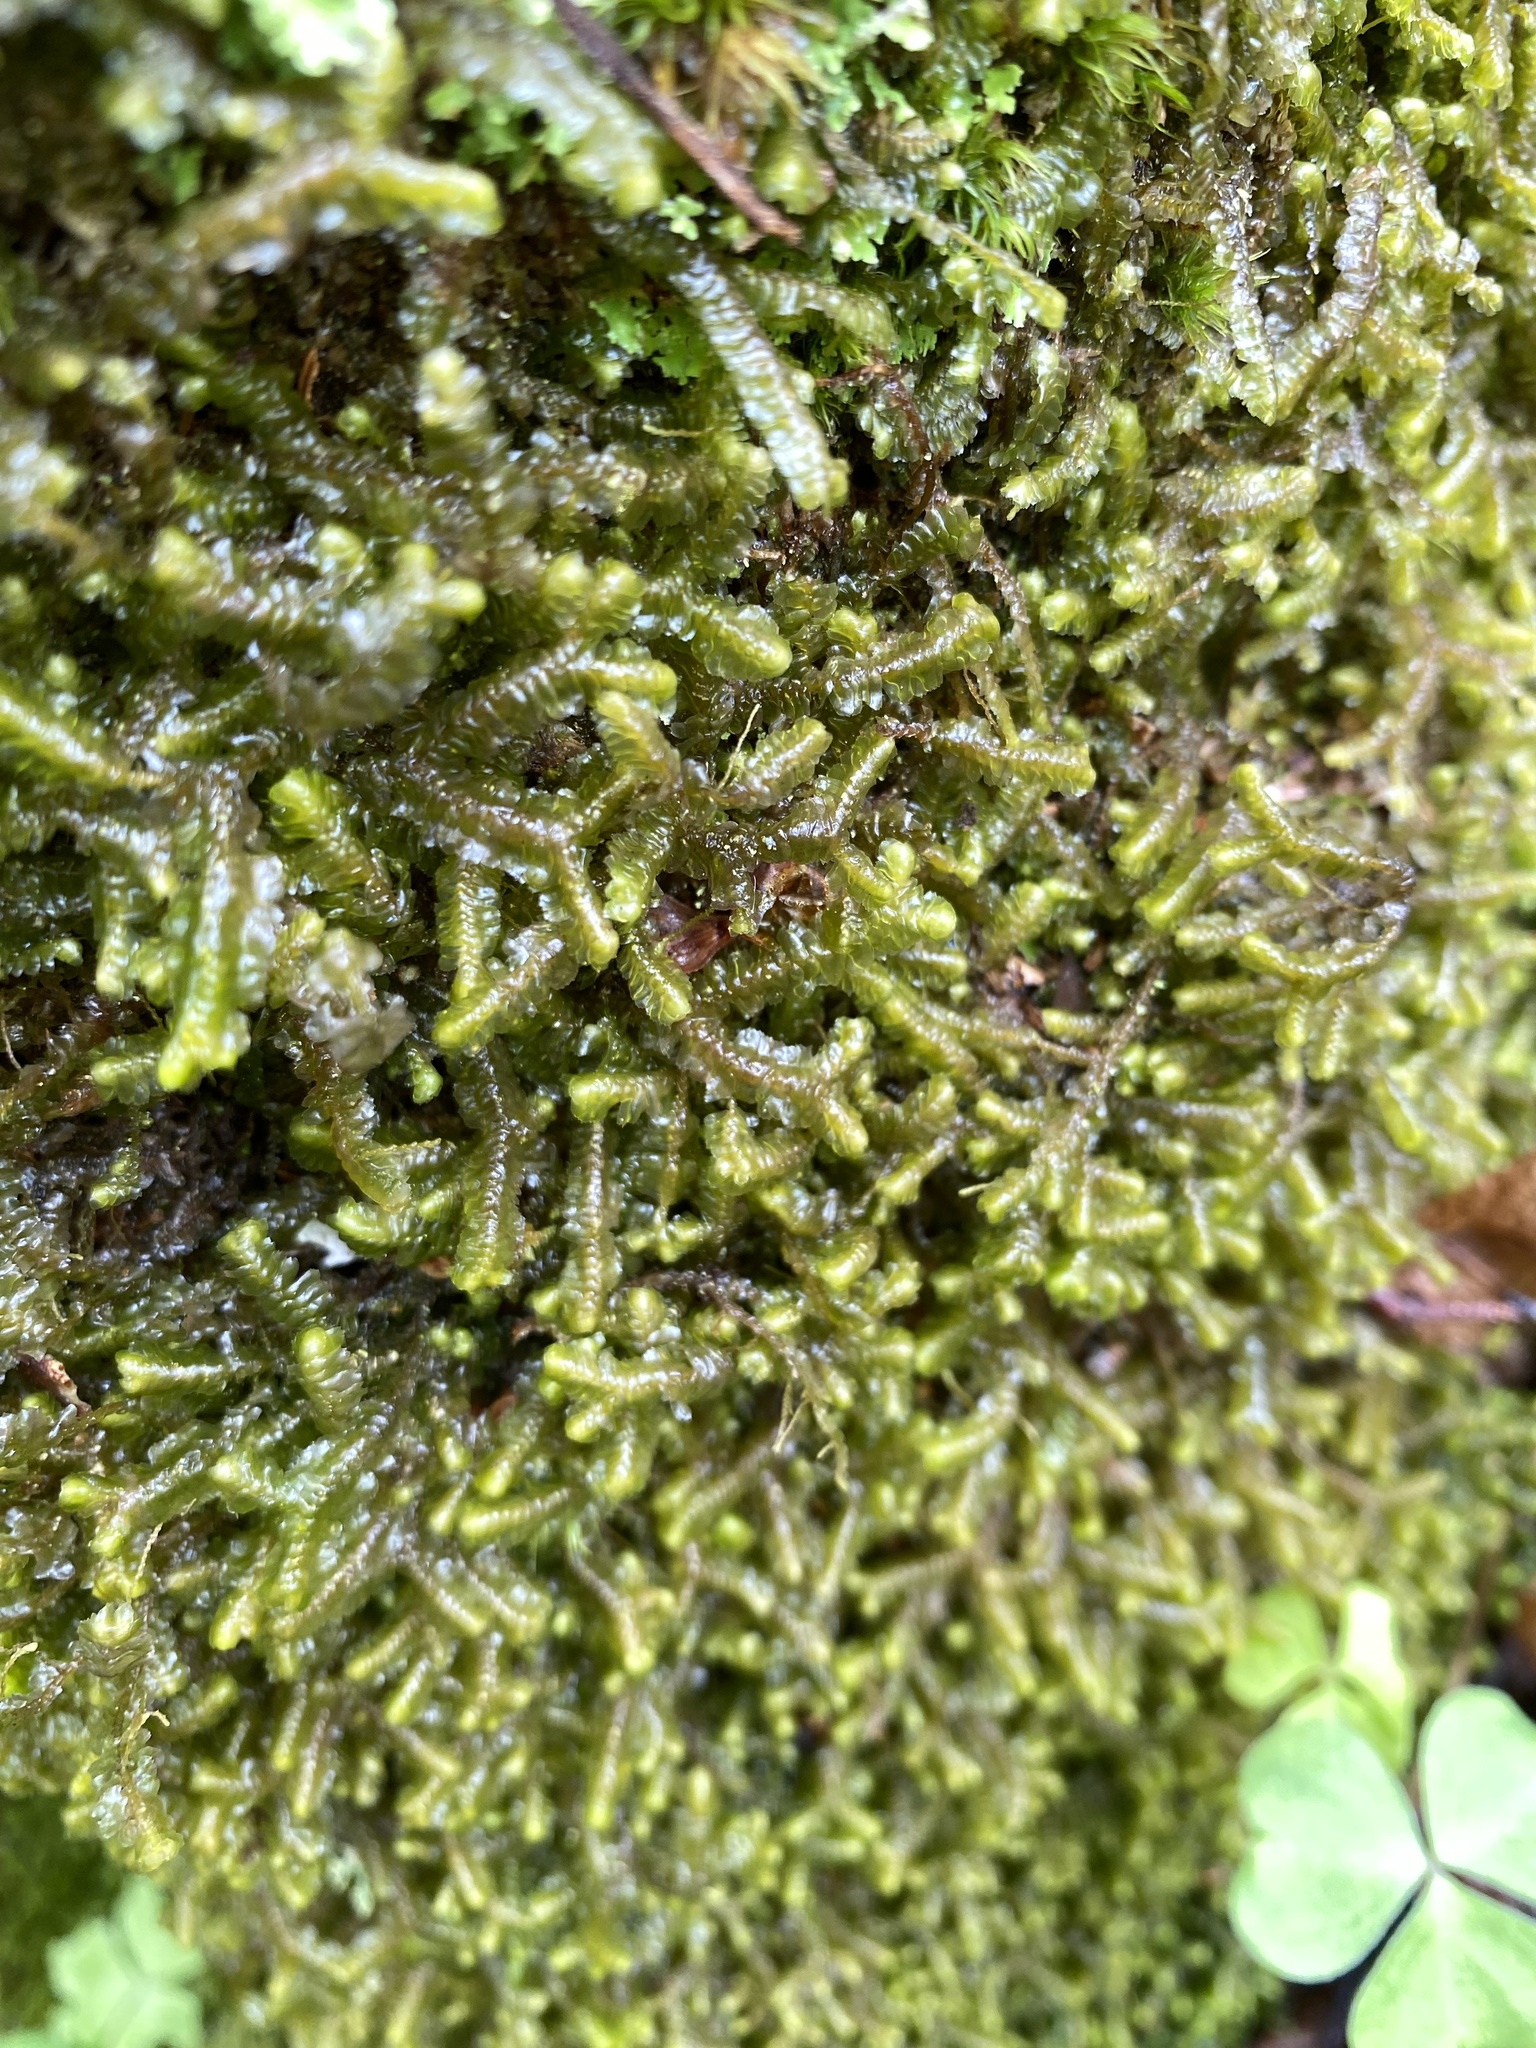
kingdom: Plantae
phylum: Marchantiophyta
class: Jungermanniopsida
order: Jungermanniales
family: Lepidoziaceae
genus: Bazzania
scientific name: Bazzania trilobata
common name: Three-lobed whipwort
